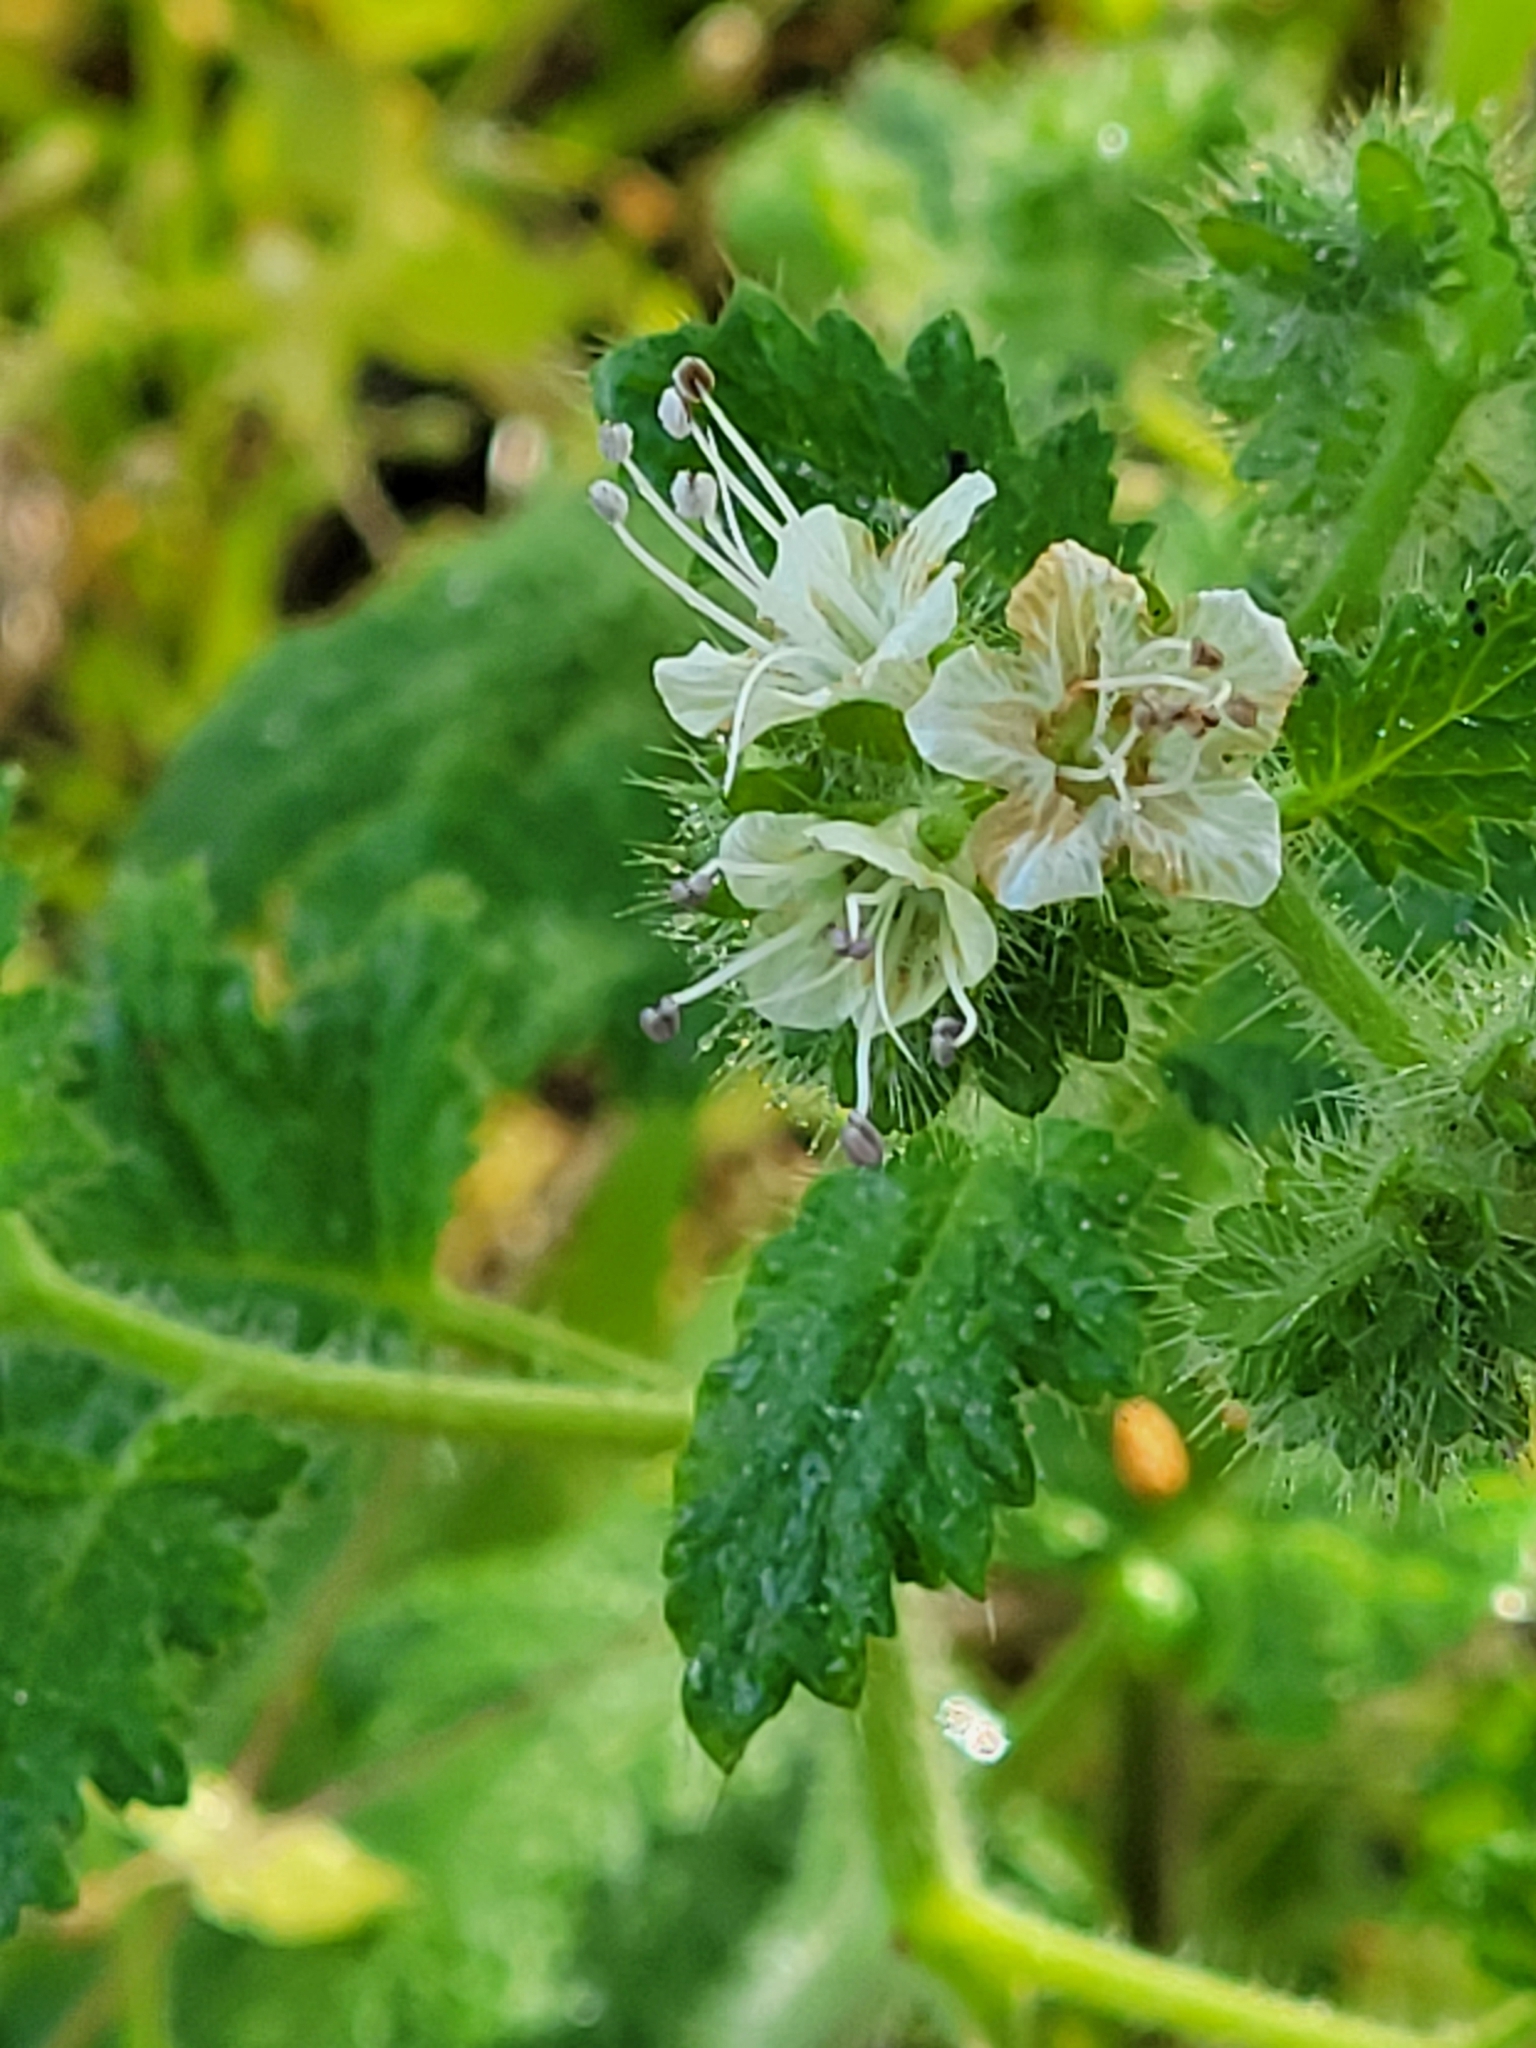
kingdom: Plantae
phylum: Tracheophyta
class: Magnoliopsida
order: Boraginales
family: Hydrophyllaceae
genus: Phacelia
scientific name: Phacelia malvifolia
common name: Mallow-leaf phacelia
